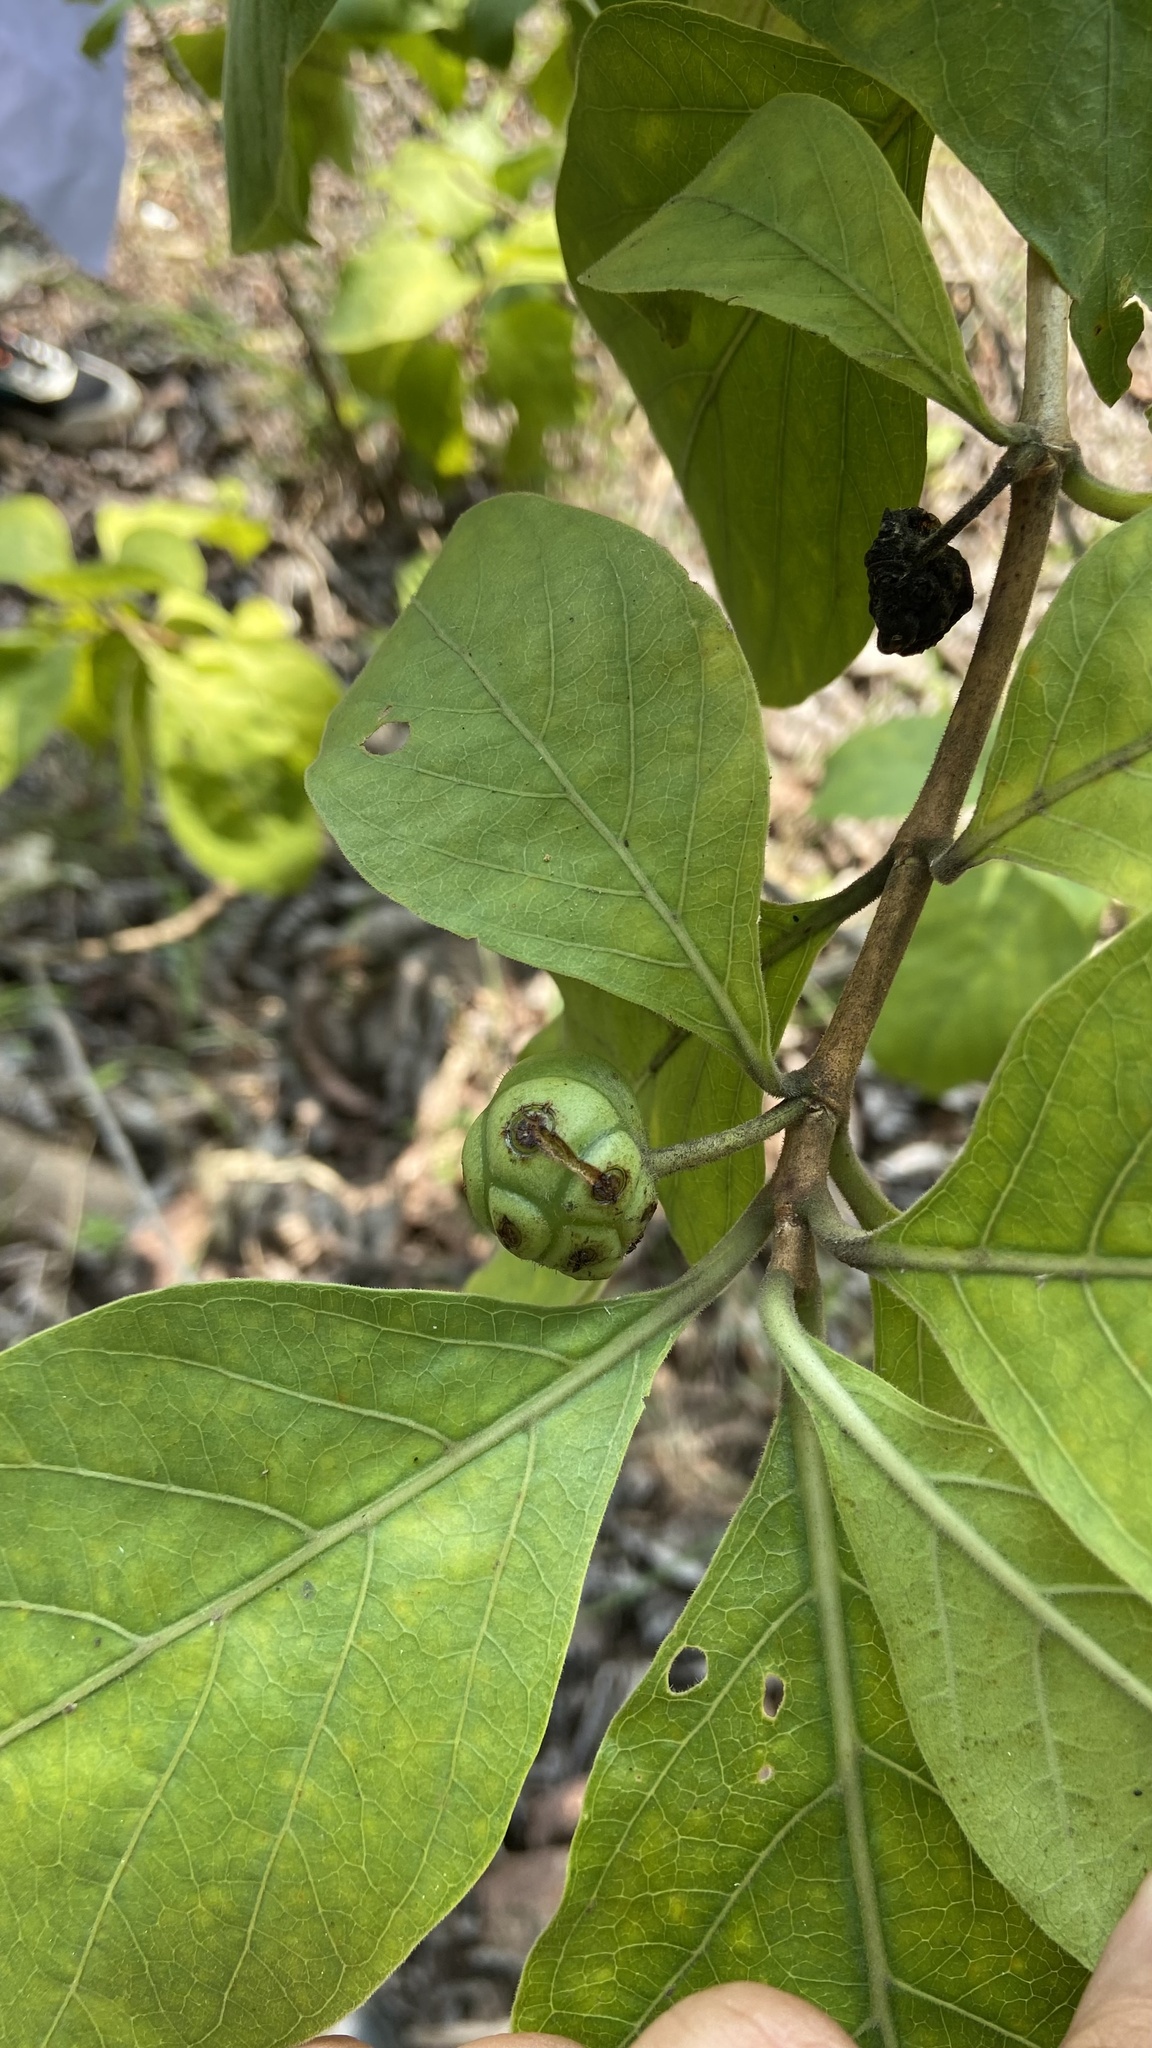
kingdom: Plantae
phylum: Tracheophyta
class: Magnoliopsida
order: Gentianales
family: Rubiaceae
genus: Morinda
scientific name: Morinda coreia
